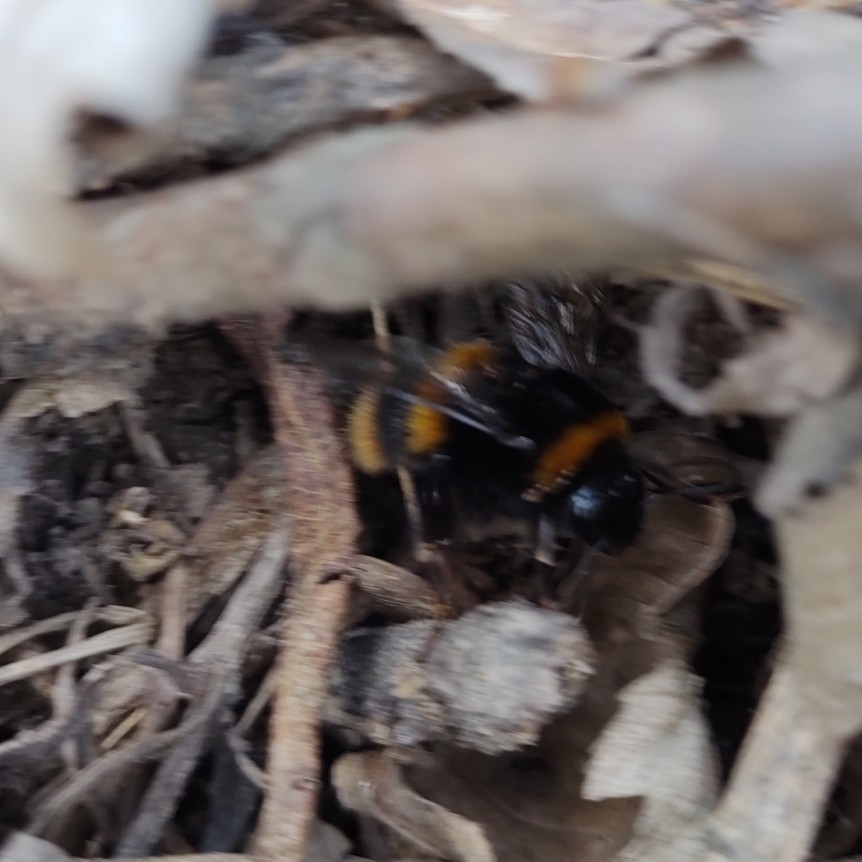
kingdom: Animalia
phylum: Arthropoda
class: Insecta
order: Hymenoptera
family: Apidae
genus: Bombus
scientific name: Bombus terrestris
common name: Buff-tailed bumblebee
